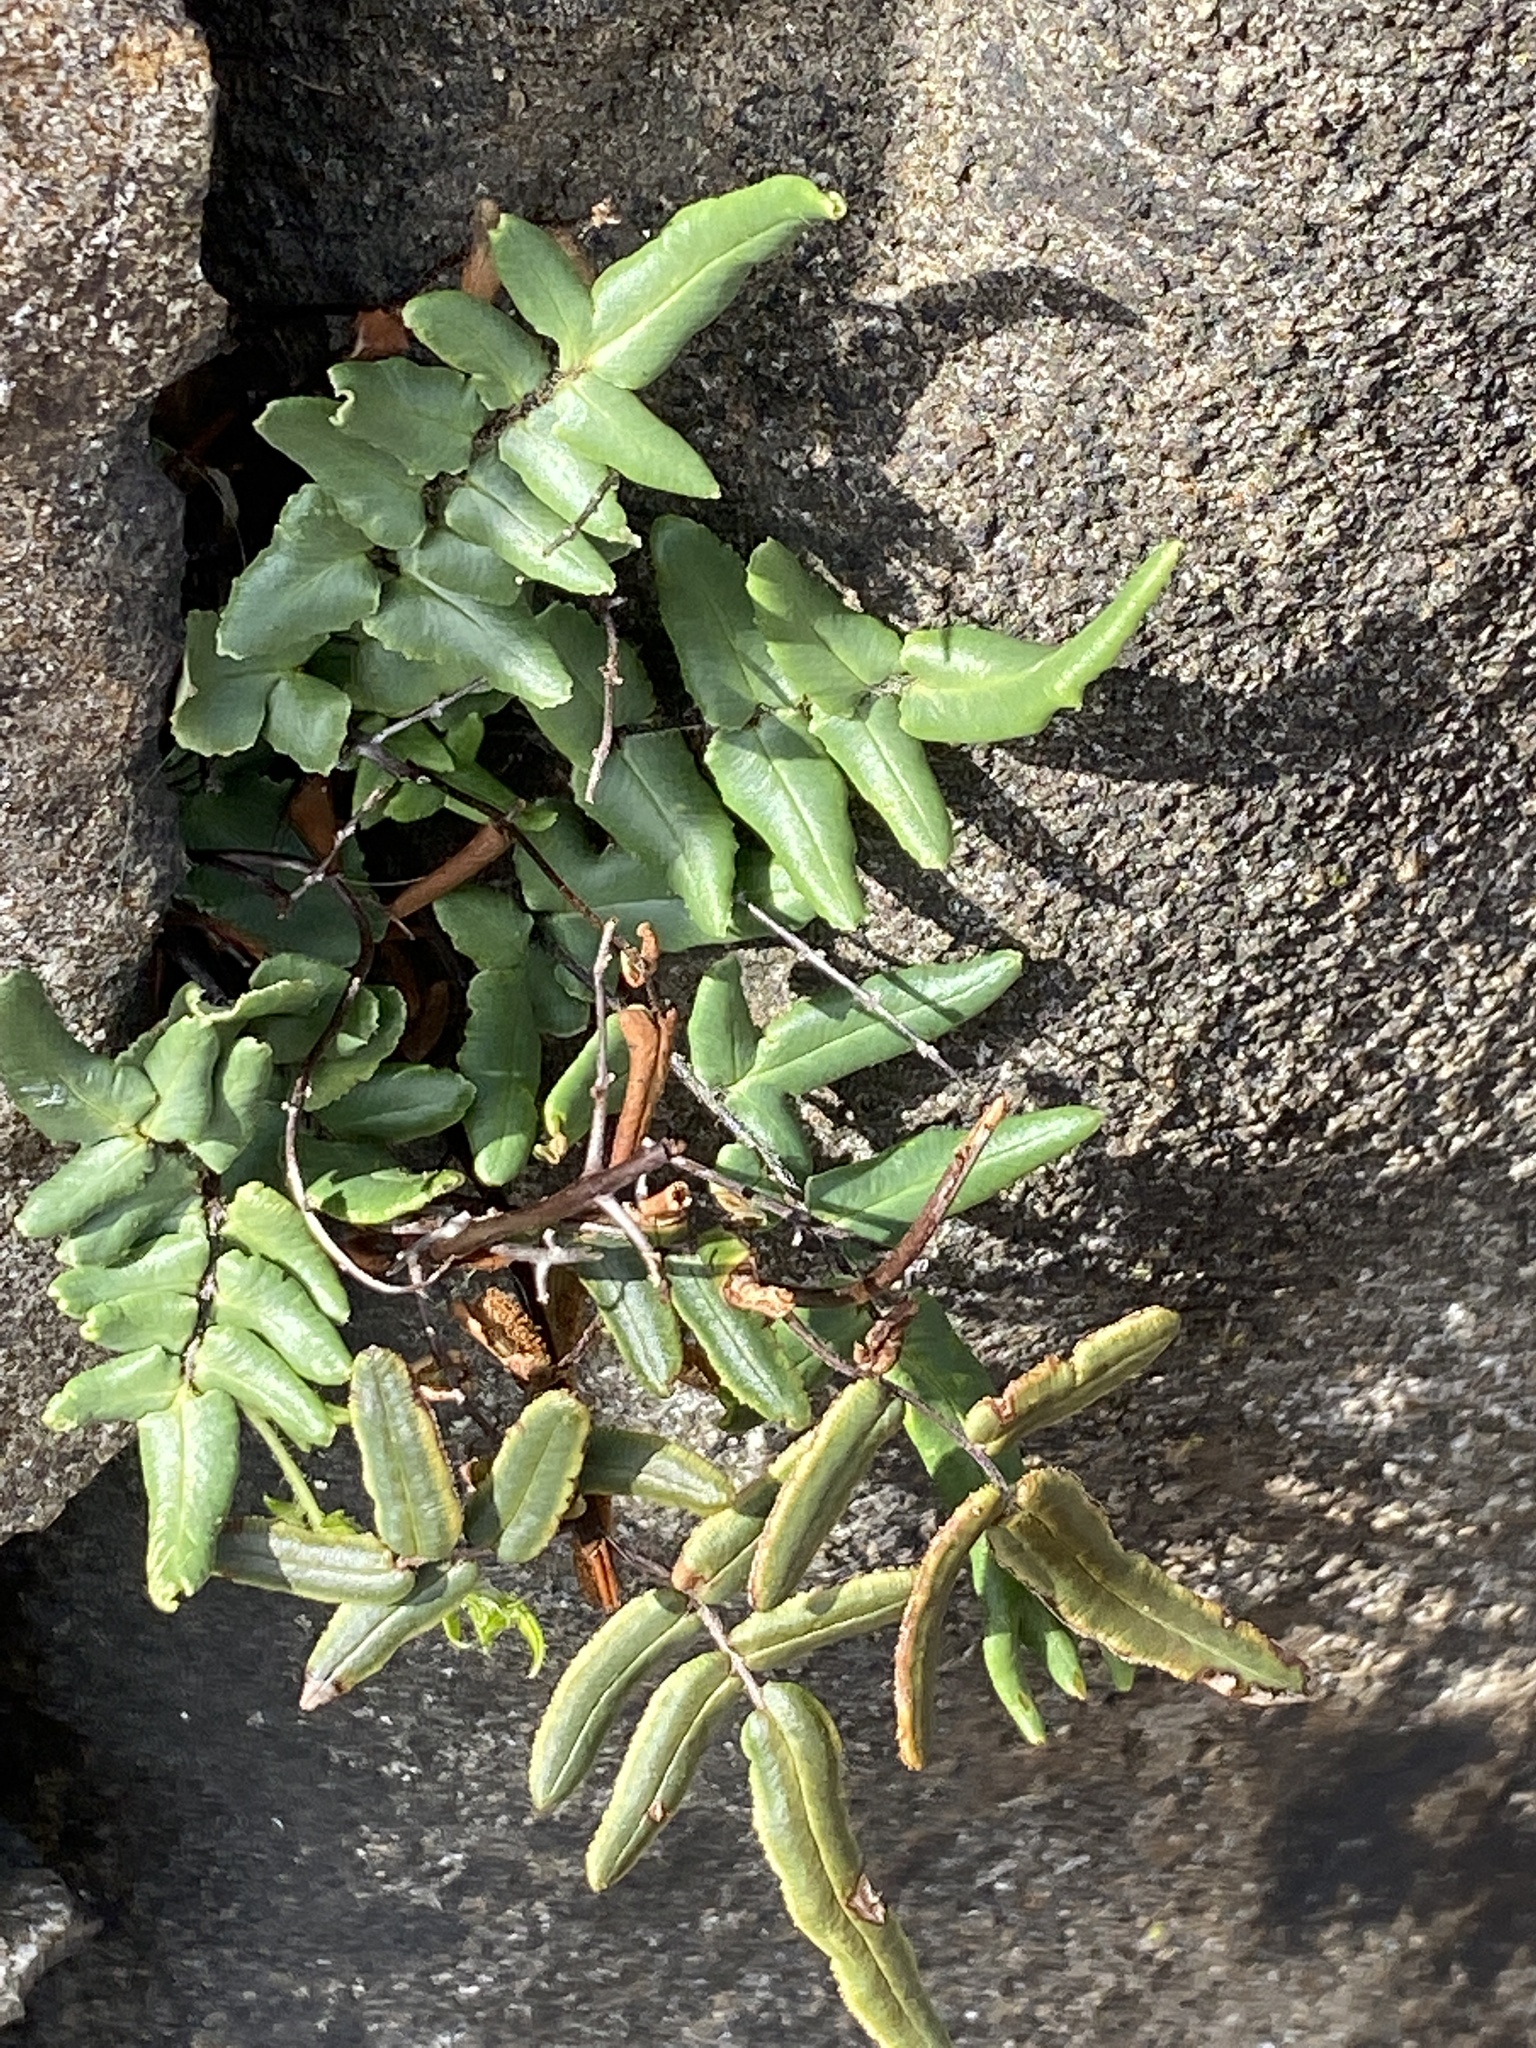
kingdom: Plantae
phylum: Tracheophyta
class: Polypodiopsida
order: Polypodiales
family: Pteridaceae
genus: Pellaea
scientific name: Pellaea atropurpurea
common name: Hairy cliffbrake
